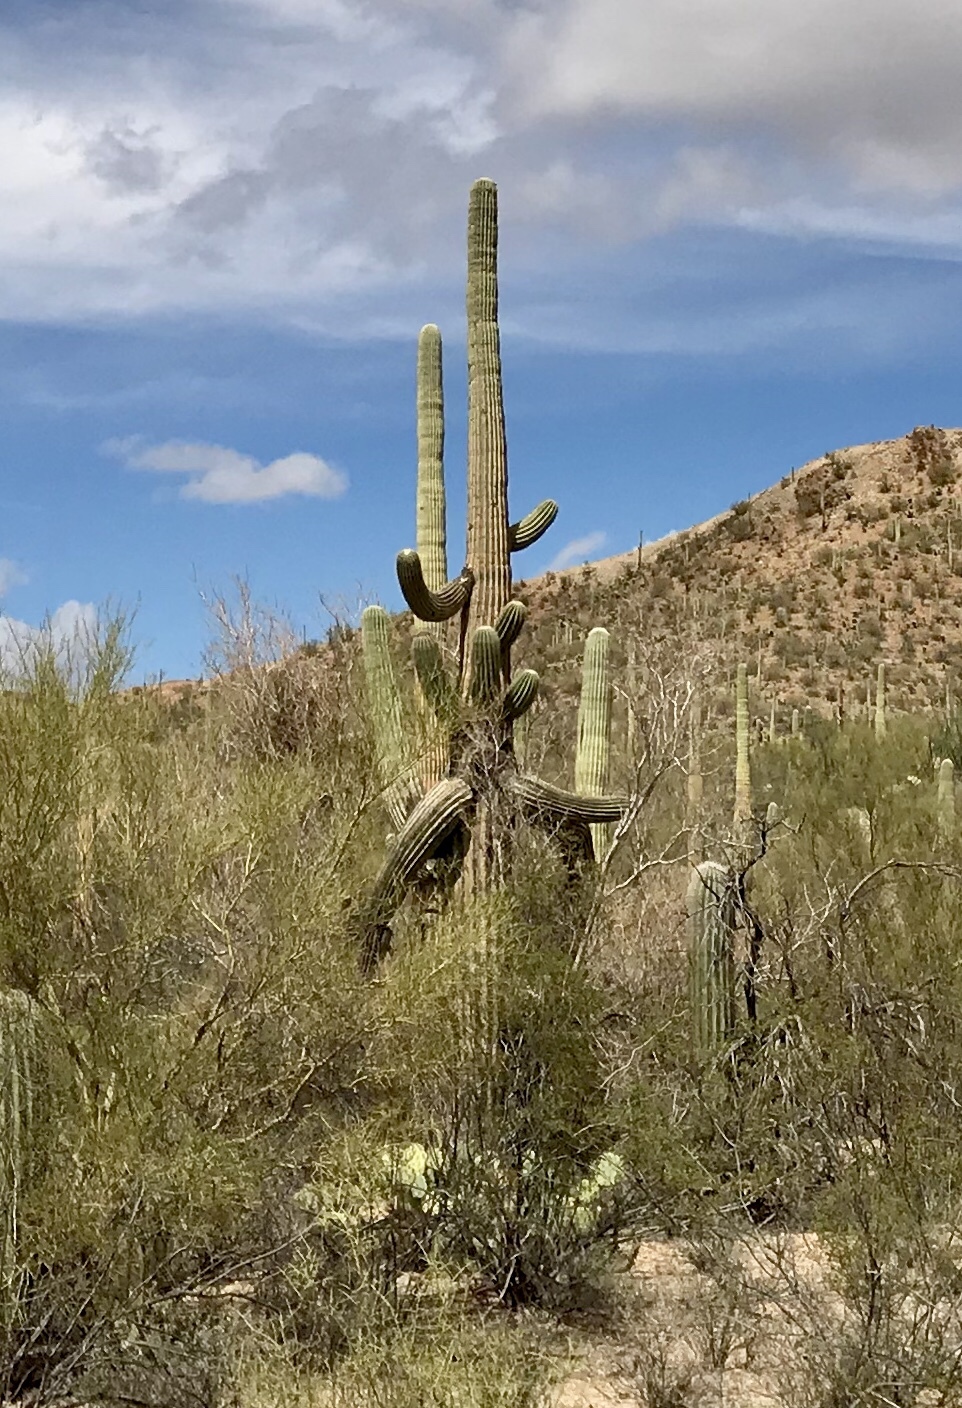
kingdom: Plantae
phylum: Tracheophyta
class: Magnoliopsida
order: Caryophyllales
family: Cactaceae
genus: Carnegiea
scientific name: Carnegiea gigantea
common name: Saguaro
